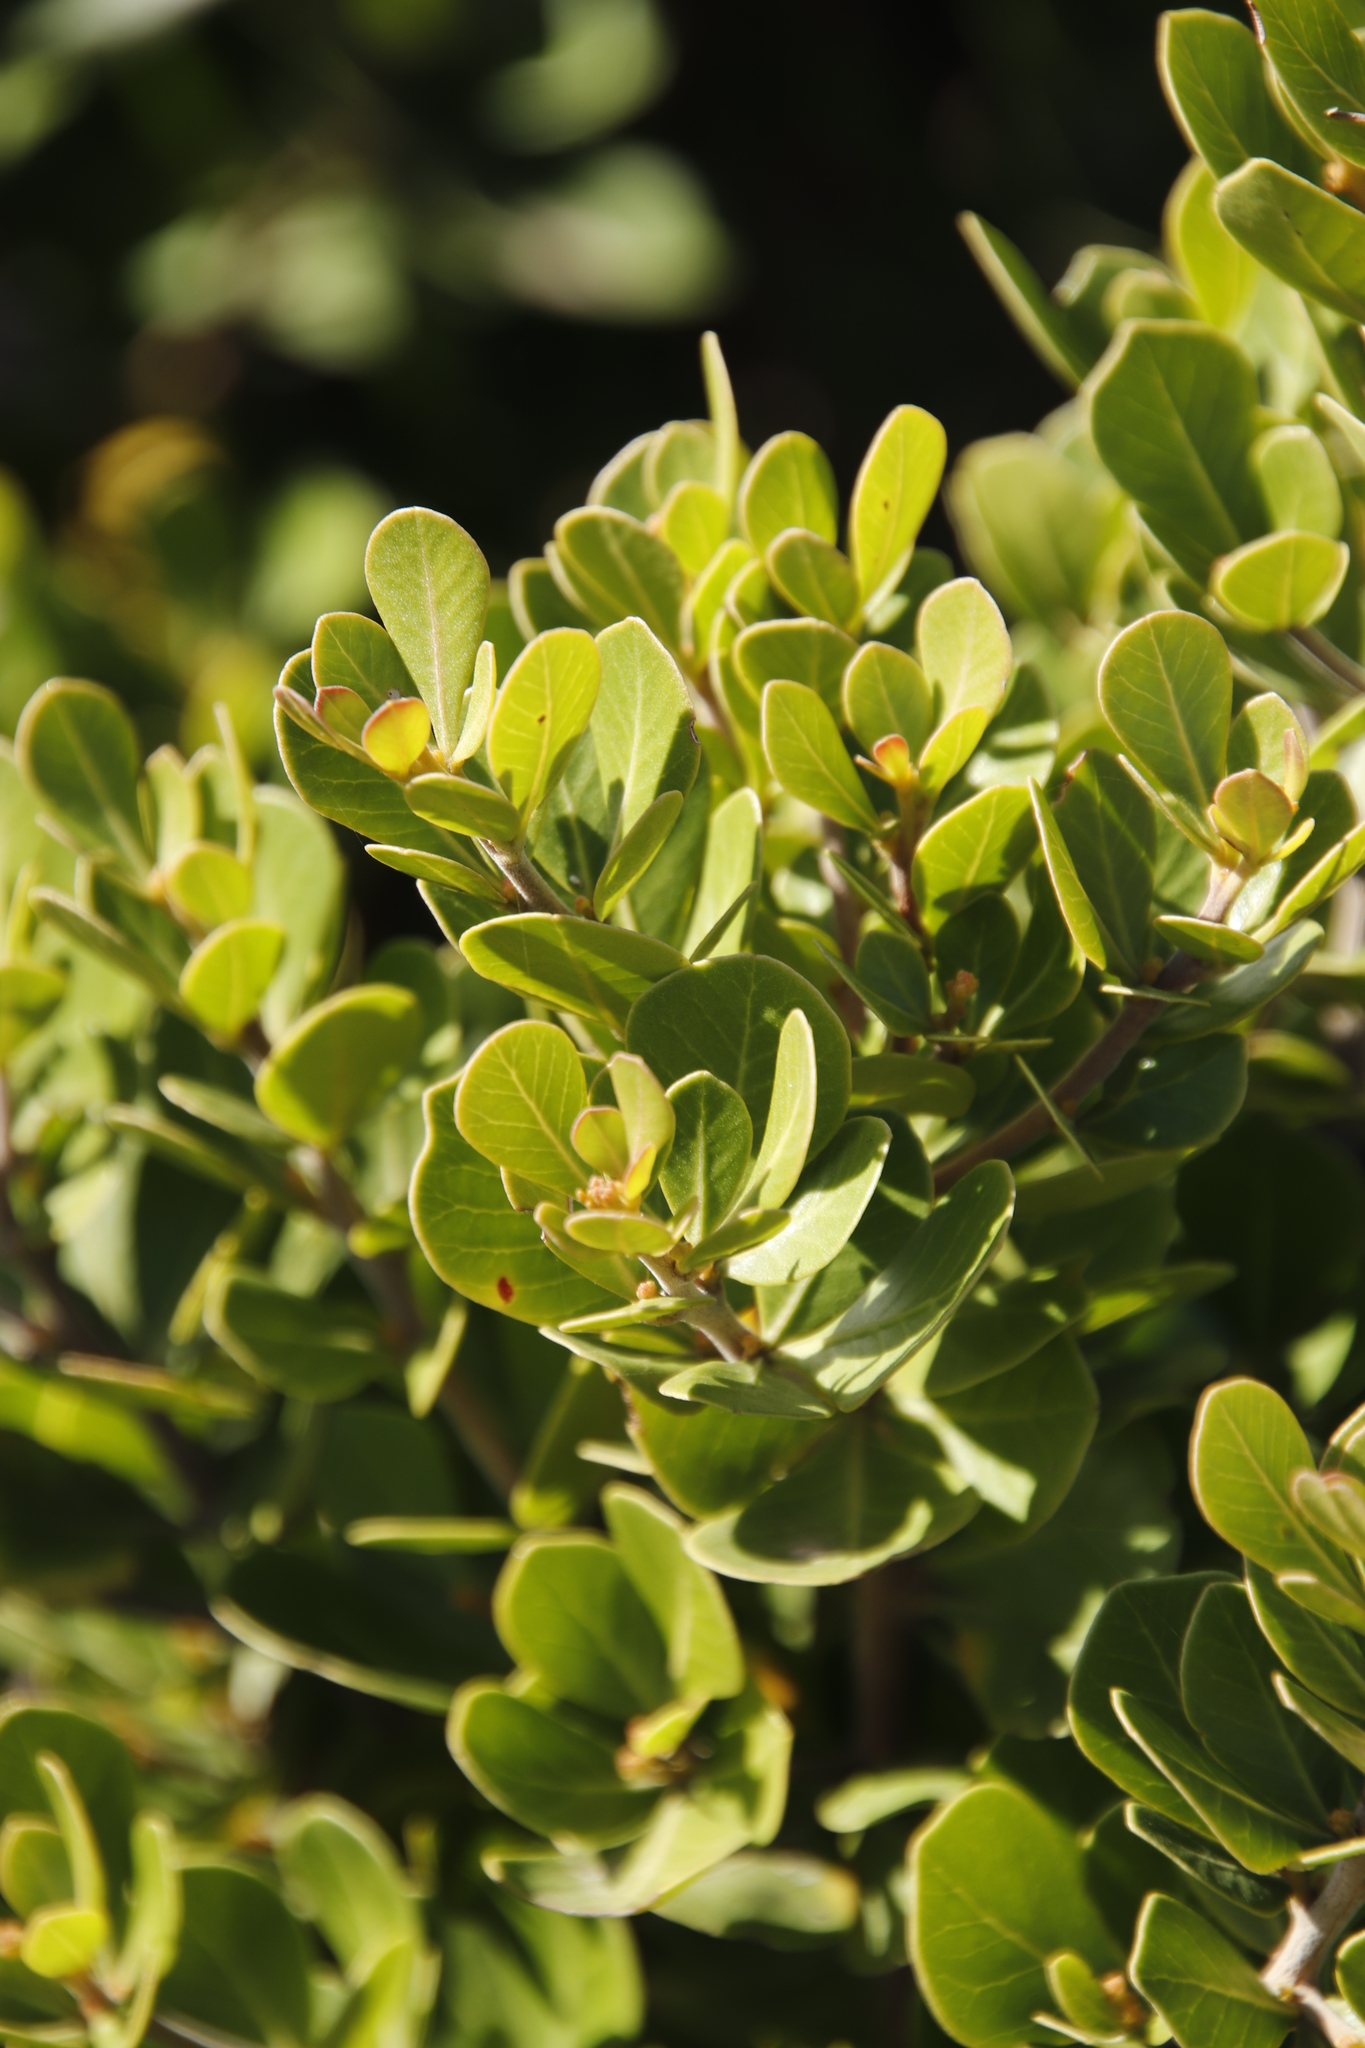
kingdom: Plantae
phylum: Tracheophyta
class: Magnoliopsida
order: Sapindales
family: Anacardiaceae
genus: Searsia
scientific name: Searsia lucida
